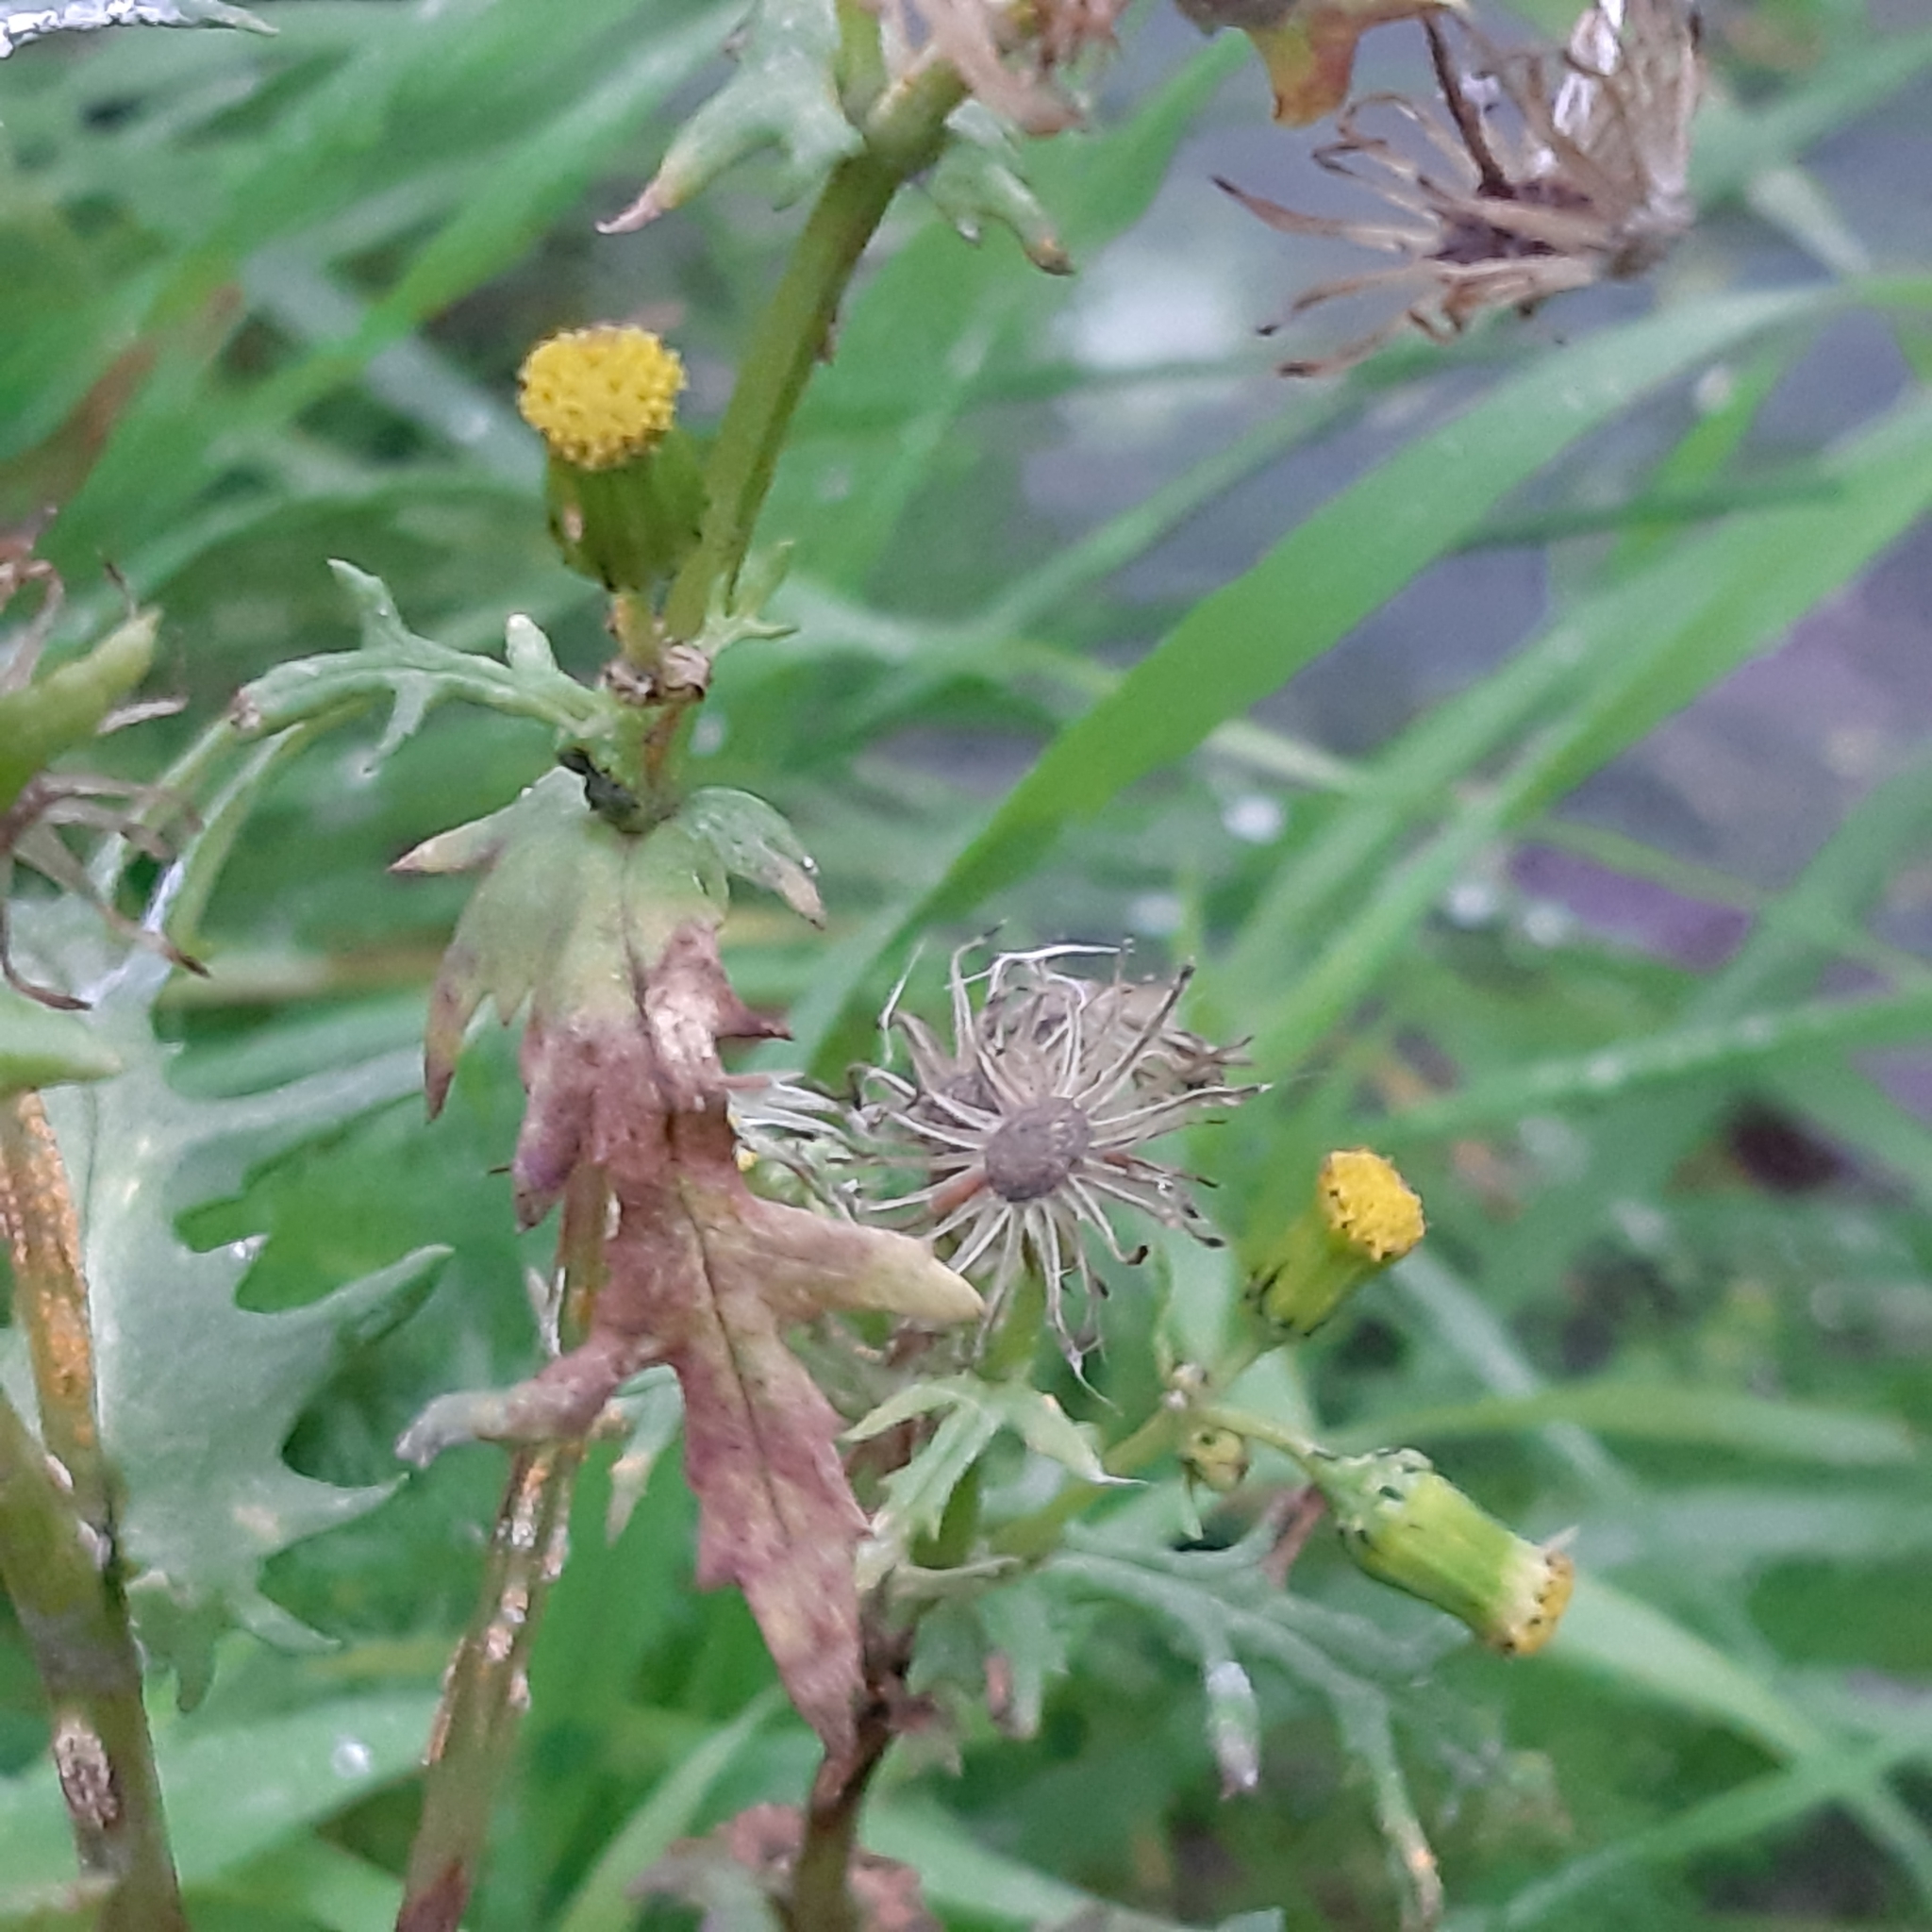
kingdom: Plantae
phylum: Tracheophyta
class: Magnoliopsida
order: Asterales
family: Asteraceae
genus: Senecio
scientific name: Senecio vulgaris
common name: Old-man-in-the-spring
